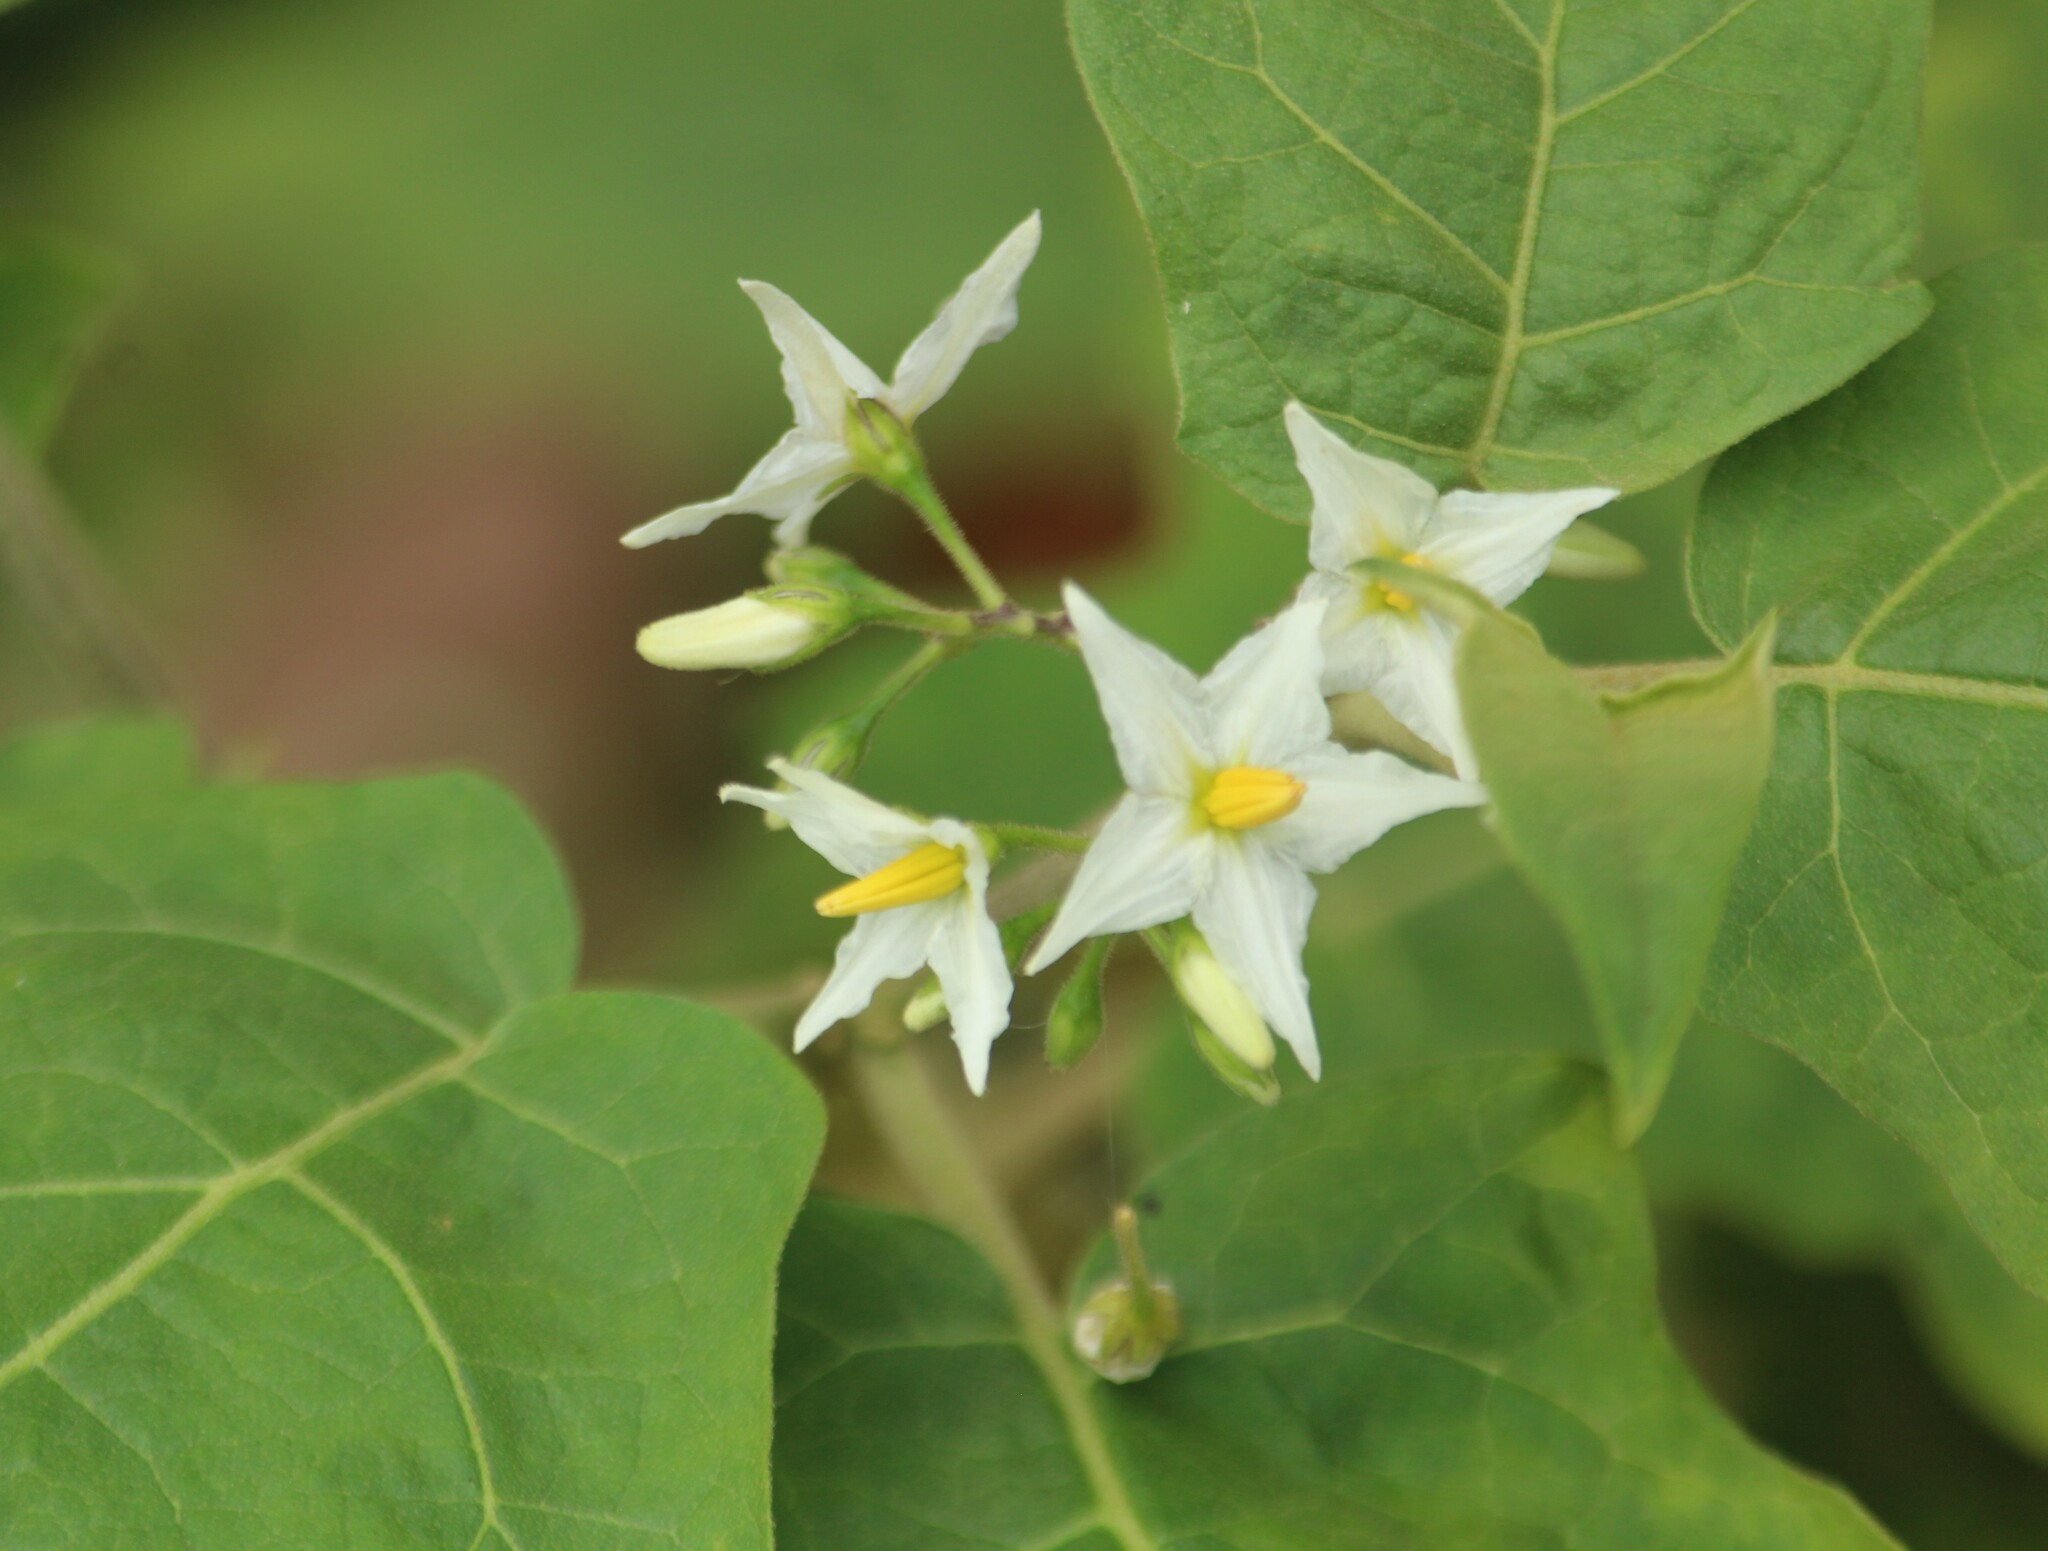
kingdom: Plantae
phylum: Tracheophyta
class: Magnoliopsida
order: Solanales
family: Solanaceae
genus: Solanum
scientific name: Solanum torvum
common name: Turkey berry
